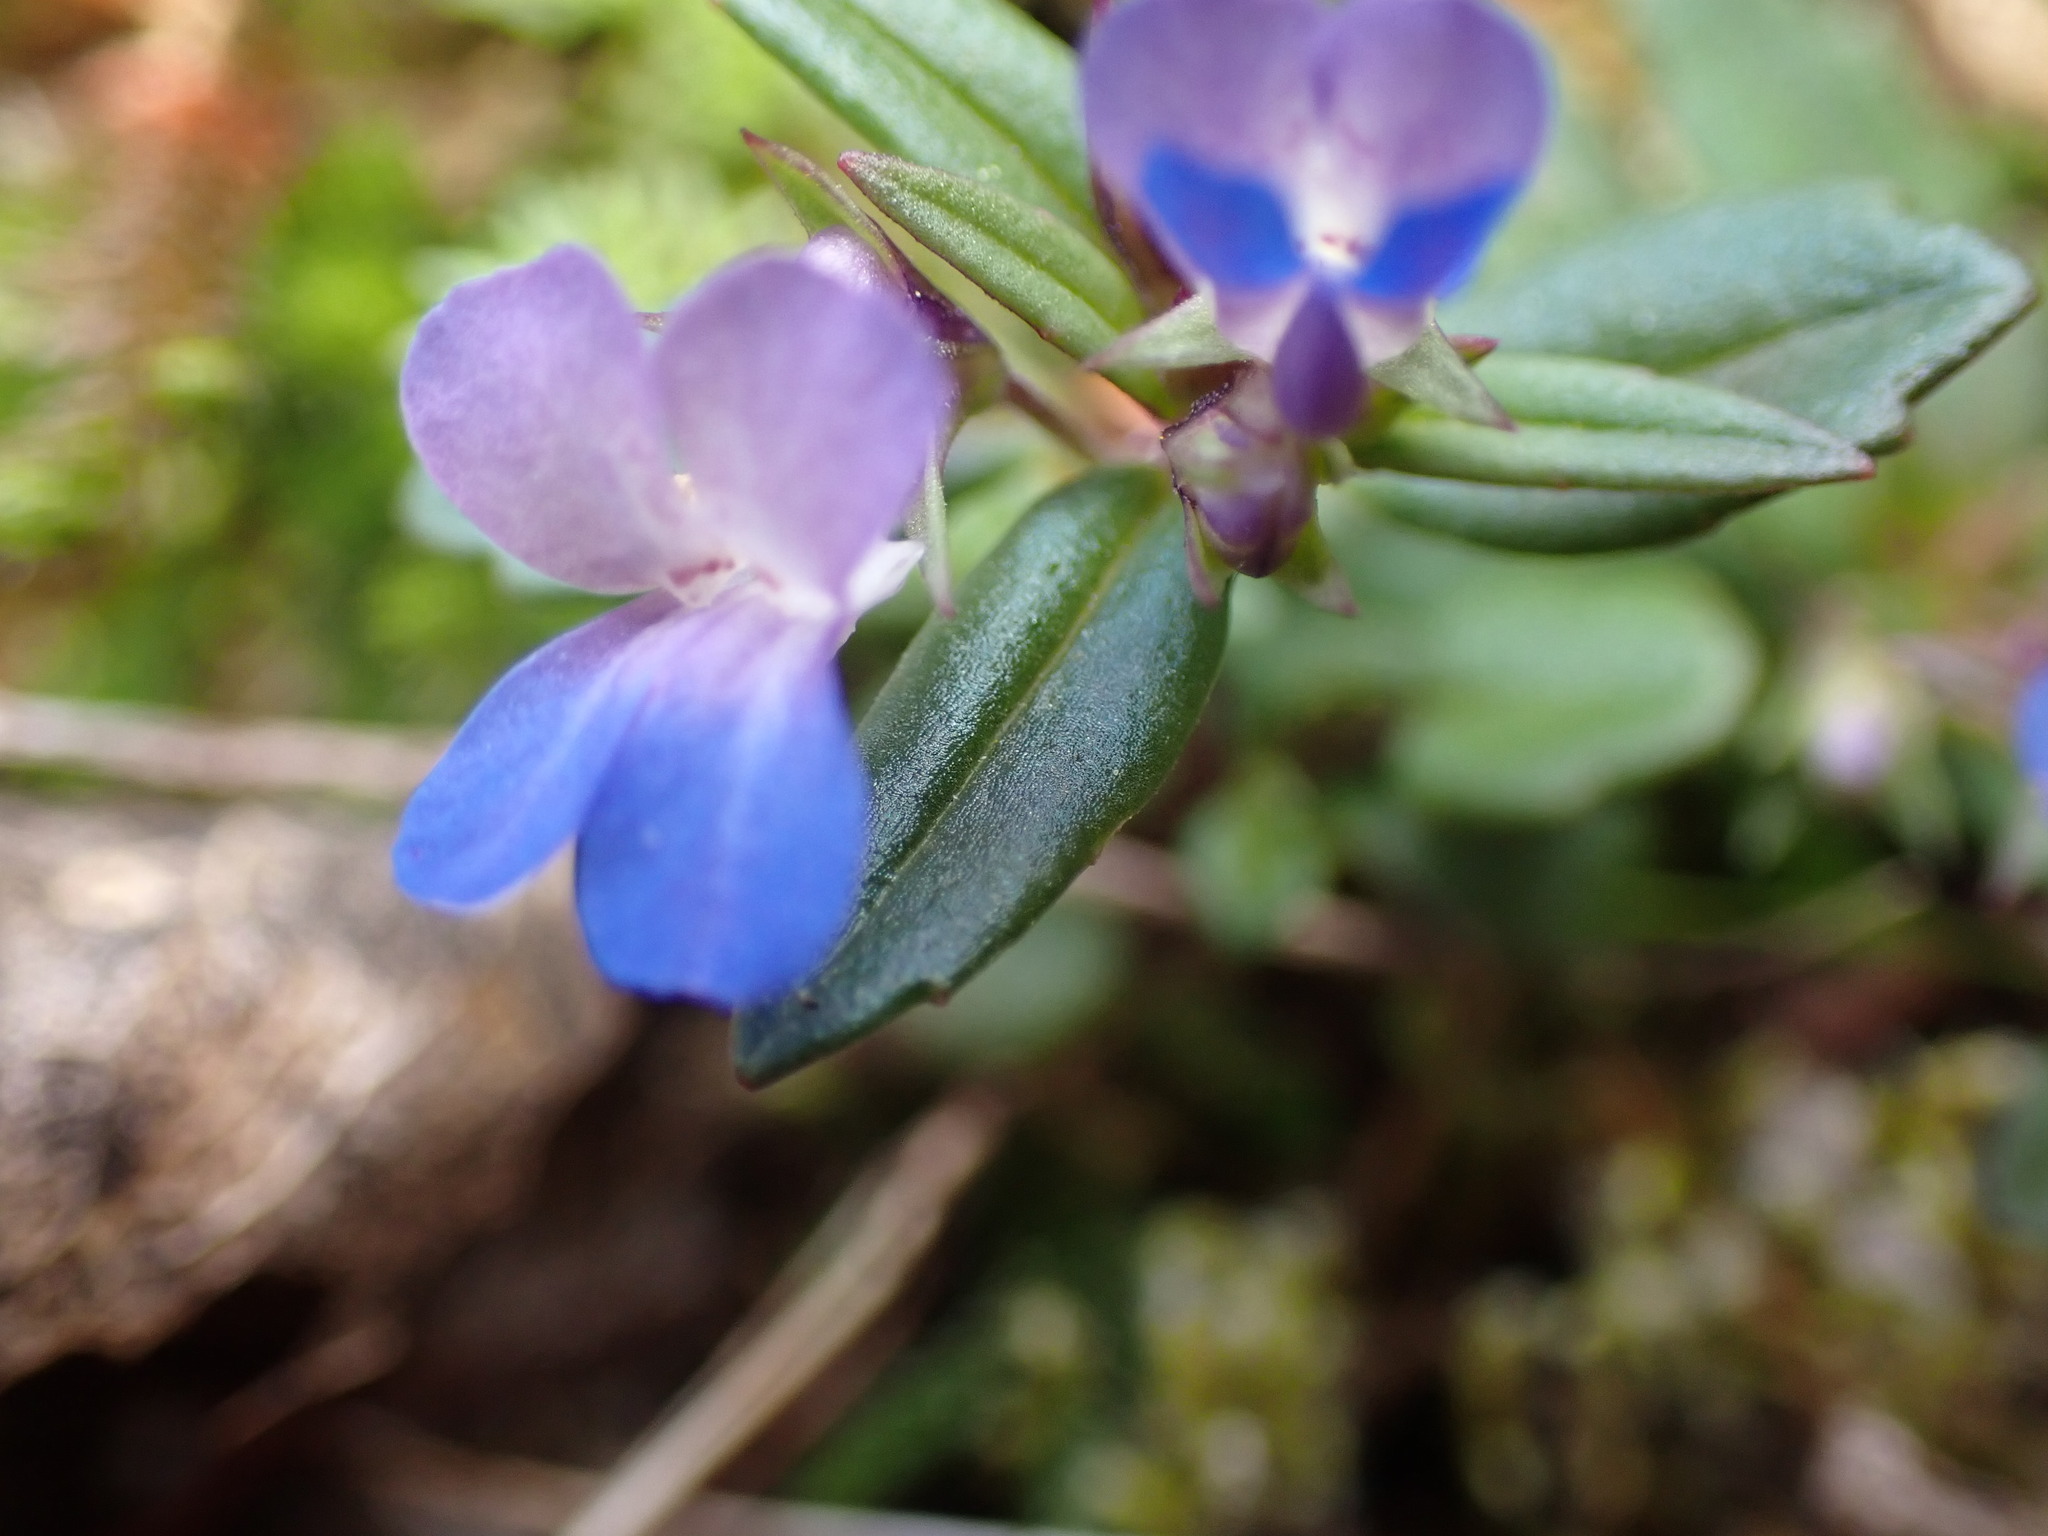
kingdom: Plantae
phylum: Tracheophyta
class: Magnoliopsida
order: Lamiales
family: Plantaginaceae
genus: Collinsia
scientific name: Collinsia grandiflora
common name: Large-flower blue-eyed-mary
